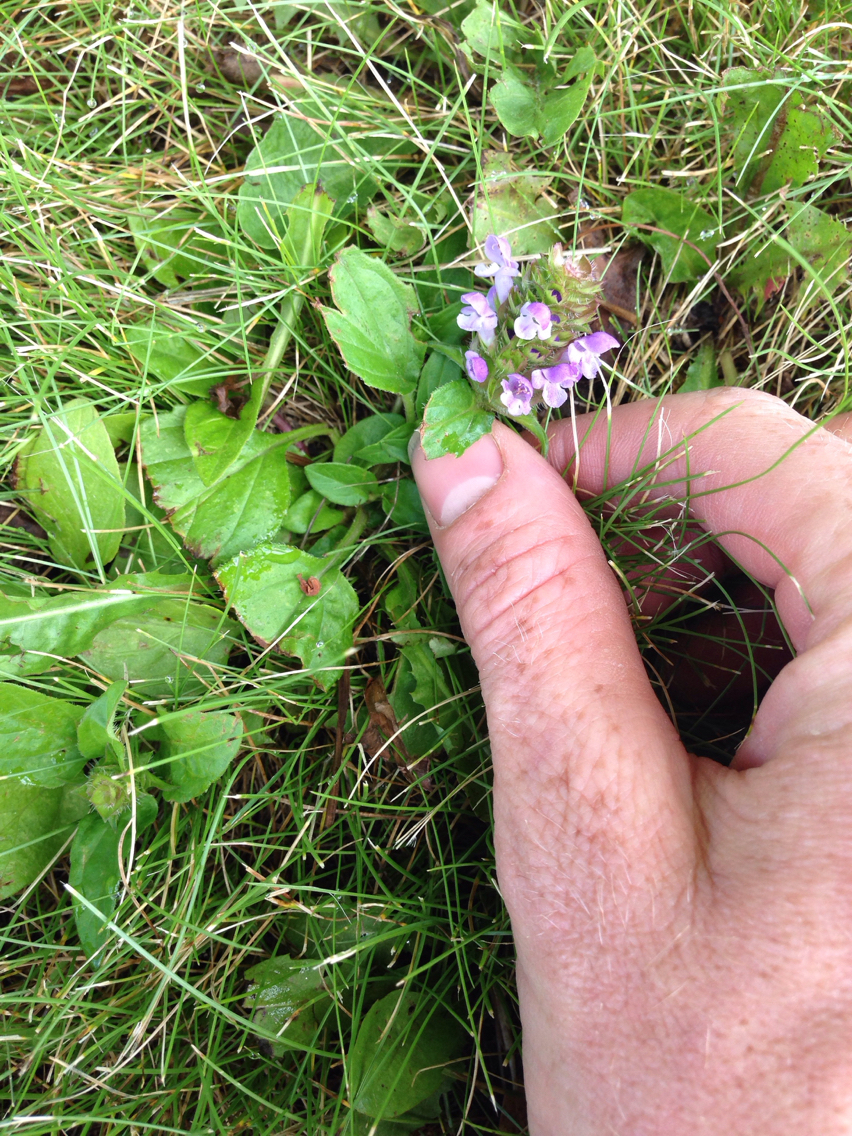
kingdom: Plantae
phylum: Tracheophyta
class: Magnoliopsida
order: Lamiales
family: Lamiaceae
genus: Prunella
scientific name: Prunella vulgaris
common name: Heal-all
